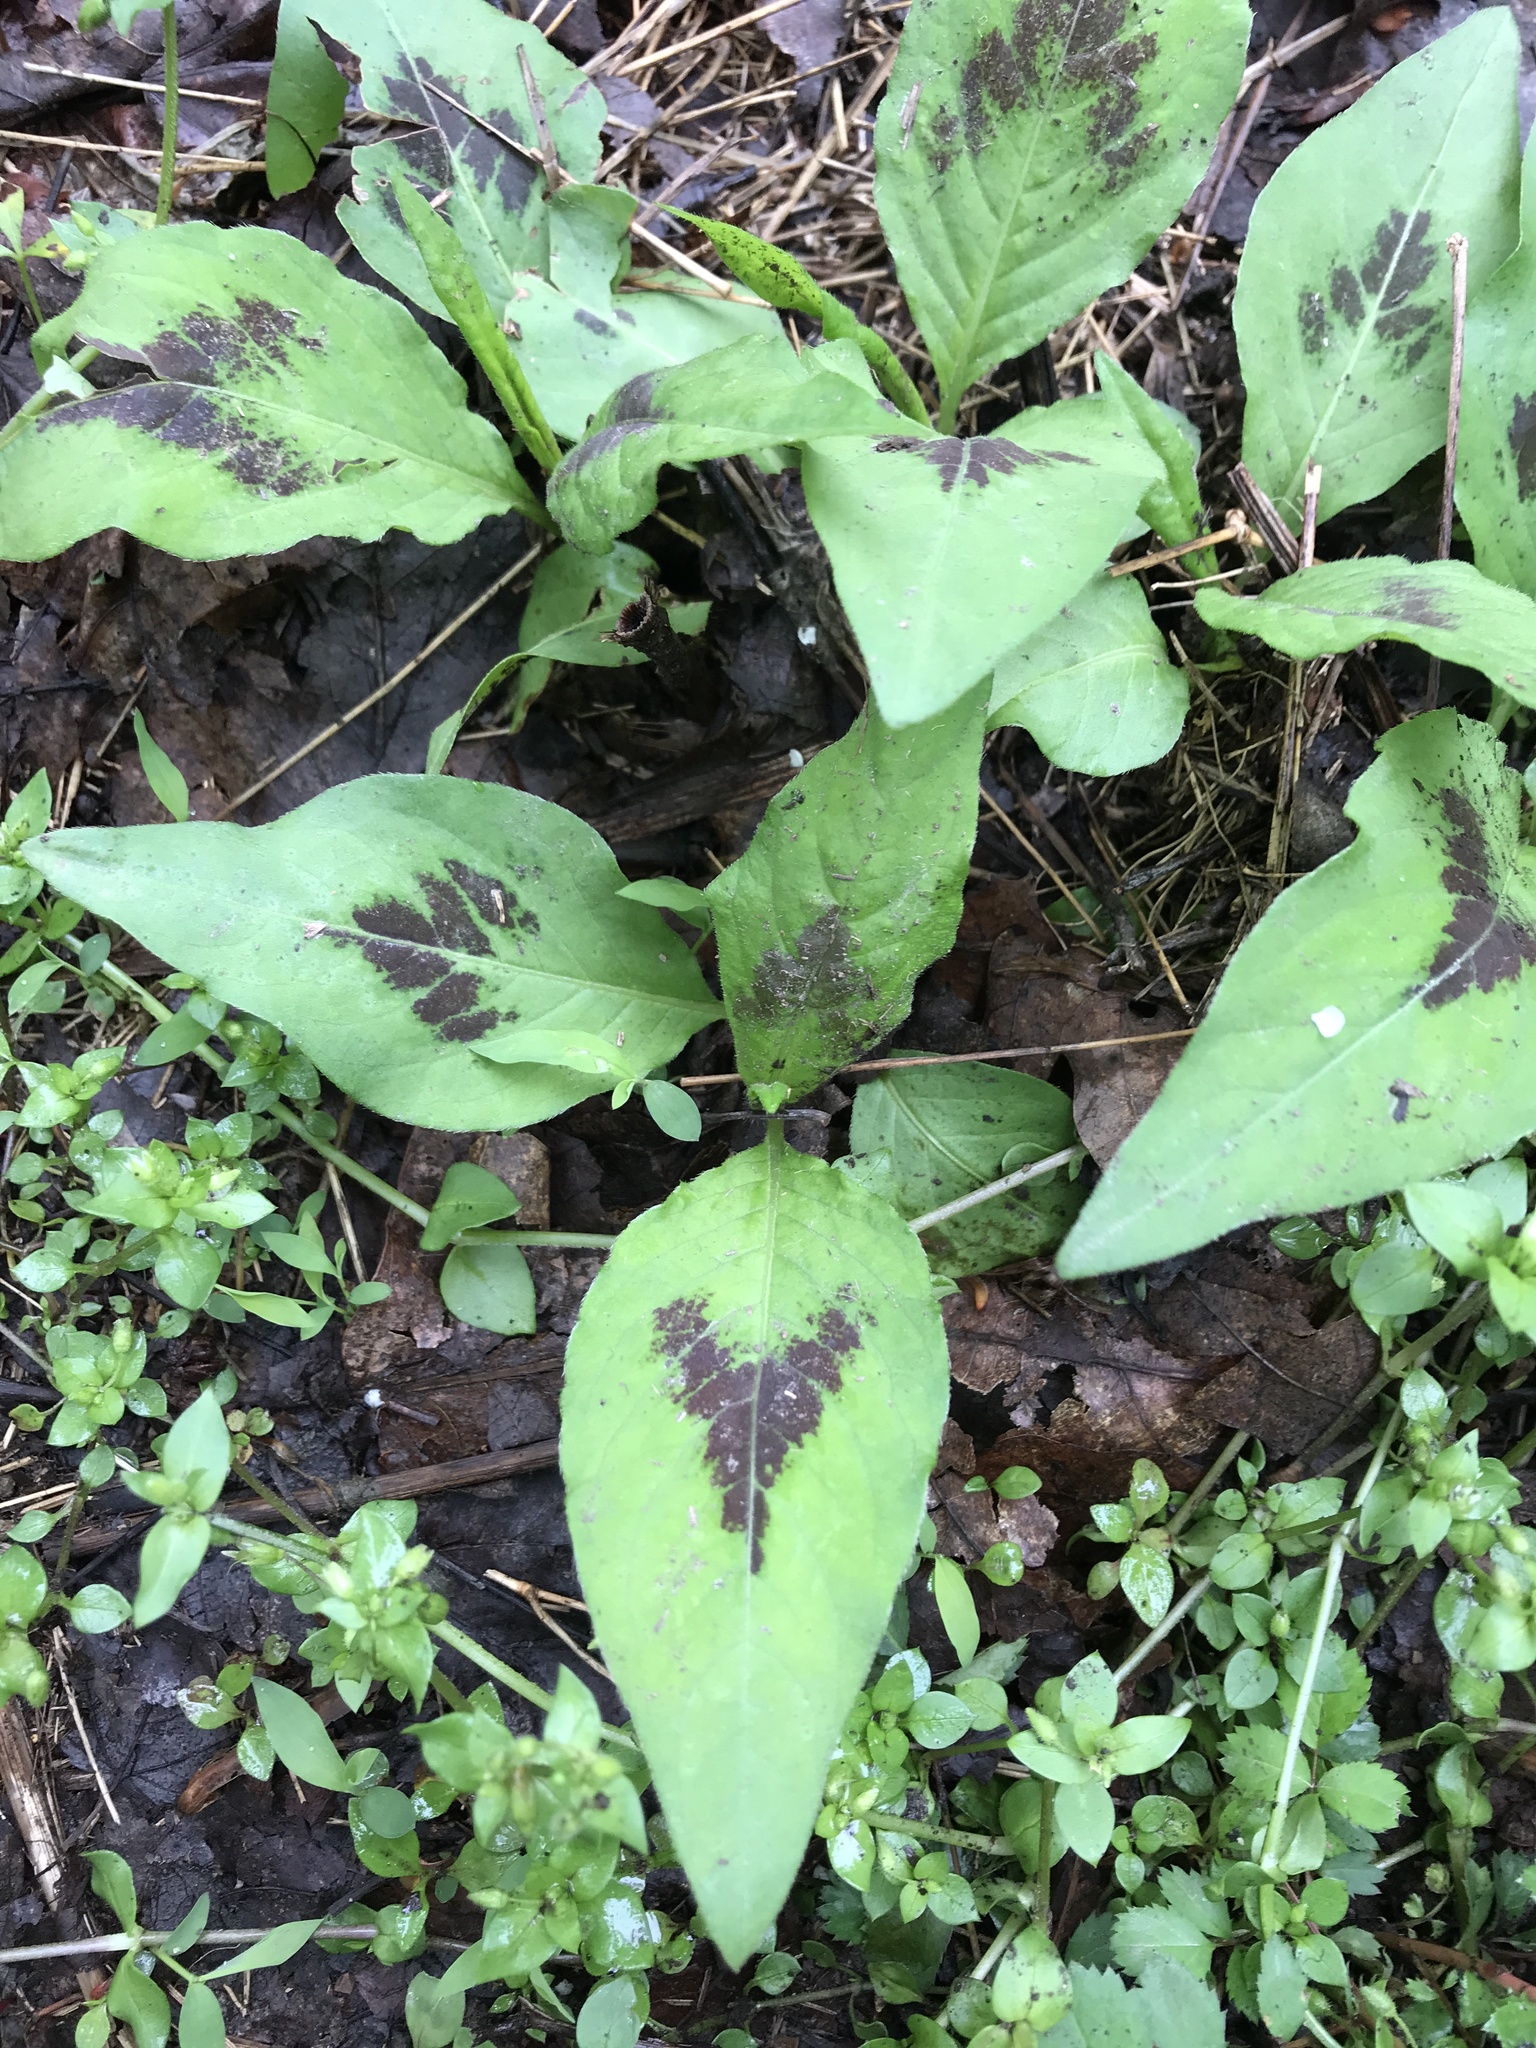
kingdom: Plantae
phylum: Tracheophyta
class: Magnoliopsida
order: Caryophyllales
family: Polygonaceae
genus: Persicaria
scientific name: Persicaria virginiana
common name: Jumpseed
